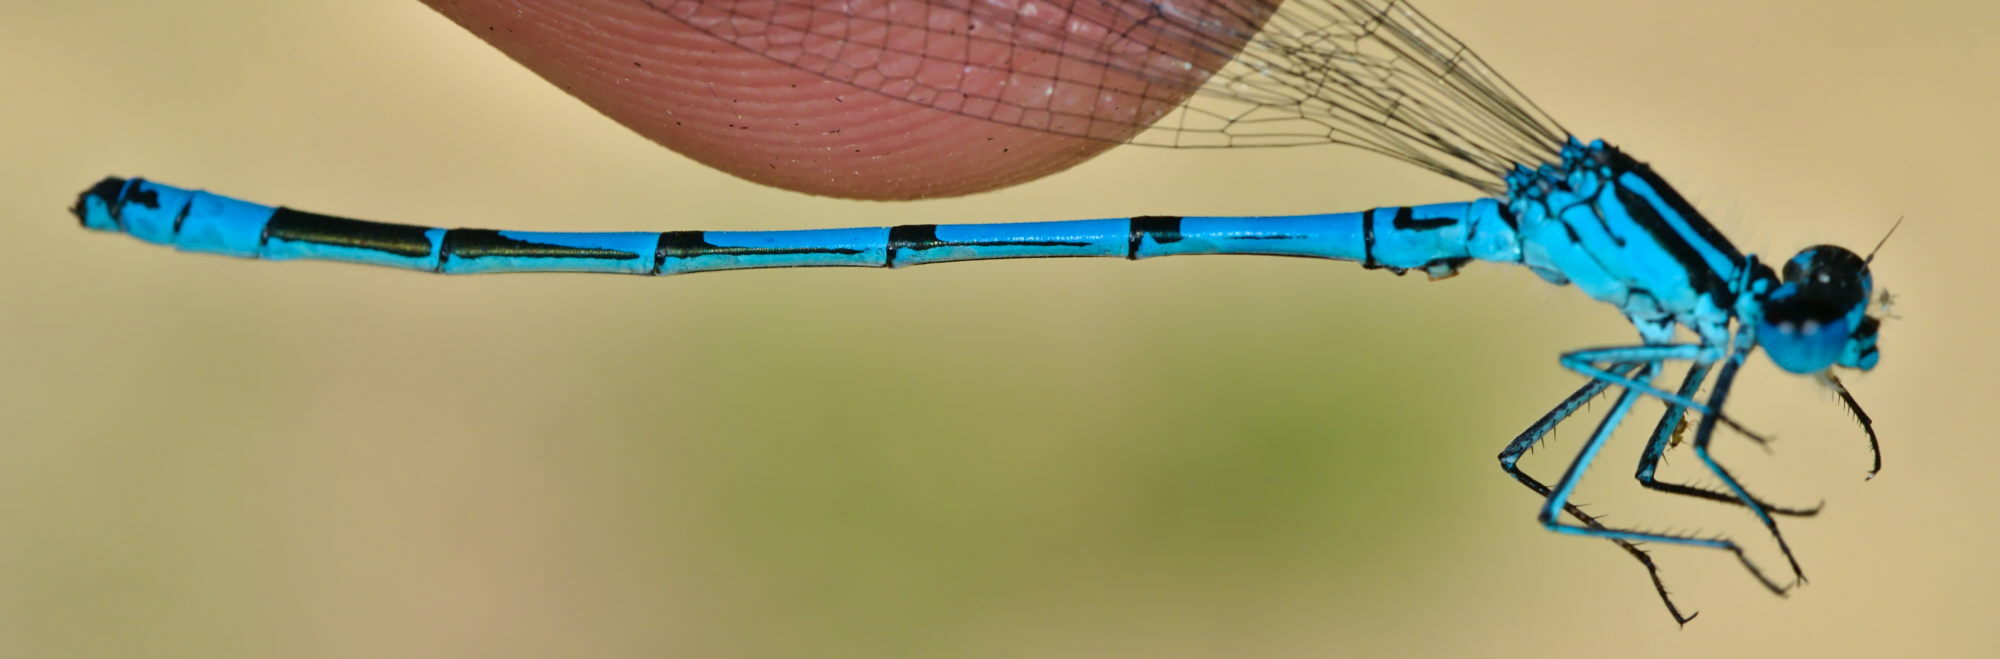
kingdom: Animalia
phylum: Arthropoda
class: Insecta
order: Odonata
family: Coenagrionidae
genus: Coenagrion
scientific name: Coenagrion puella
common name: Azure damselfly
